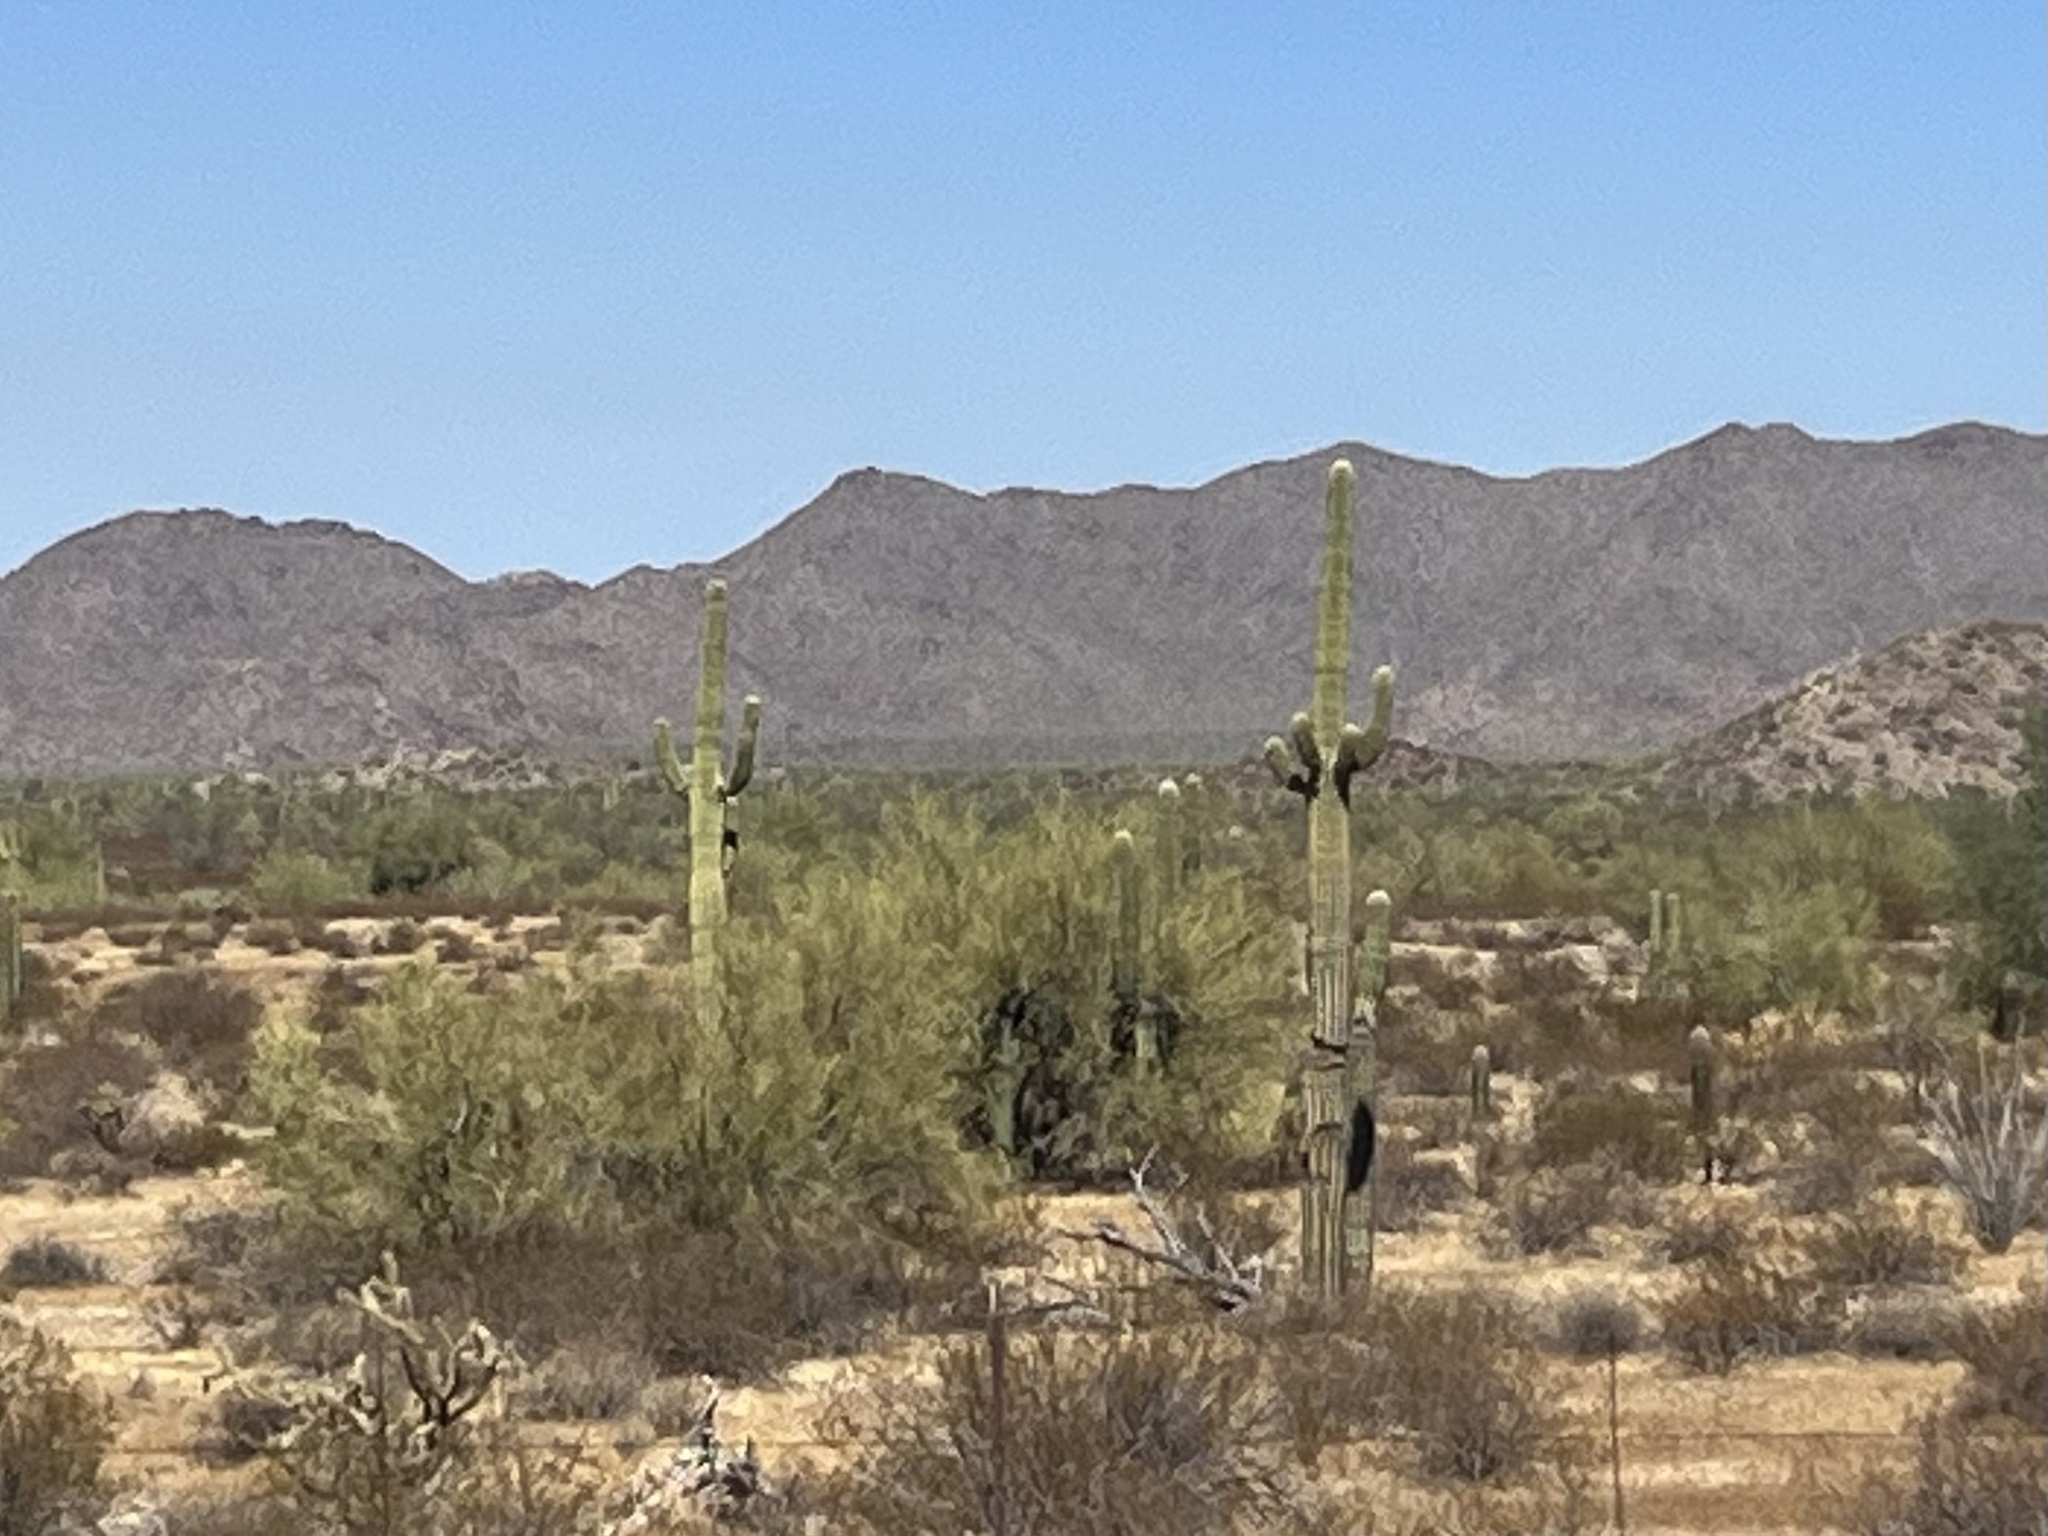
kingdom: Plantae
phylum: Tracheophyta
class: Magnoliopsida
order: Caryophyllales
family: Cactaceae
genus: Carnegiea
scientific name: Carnegiea gigantea
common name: Saguaro
